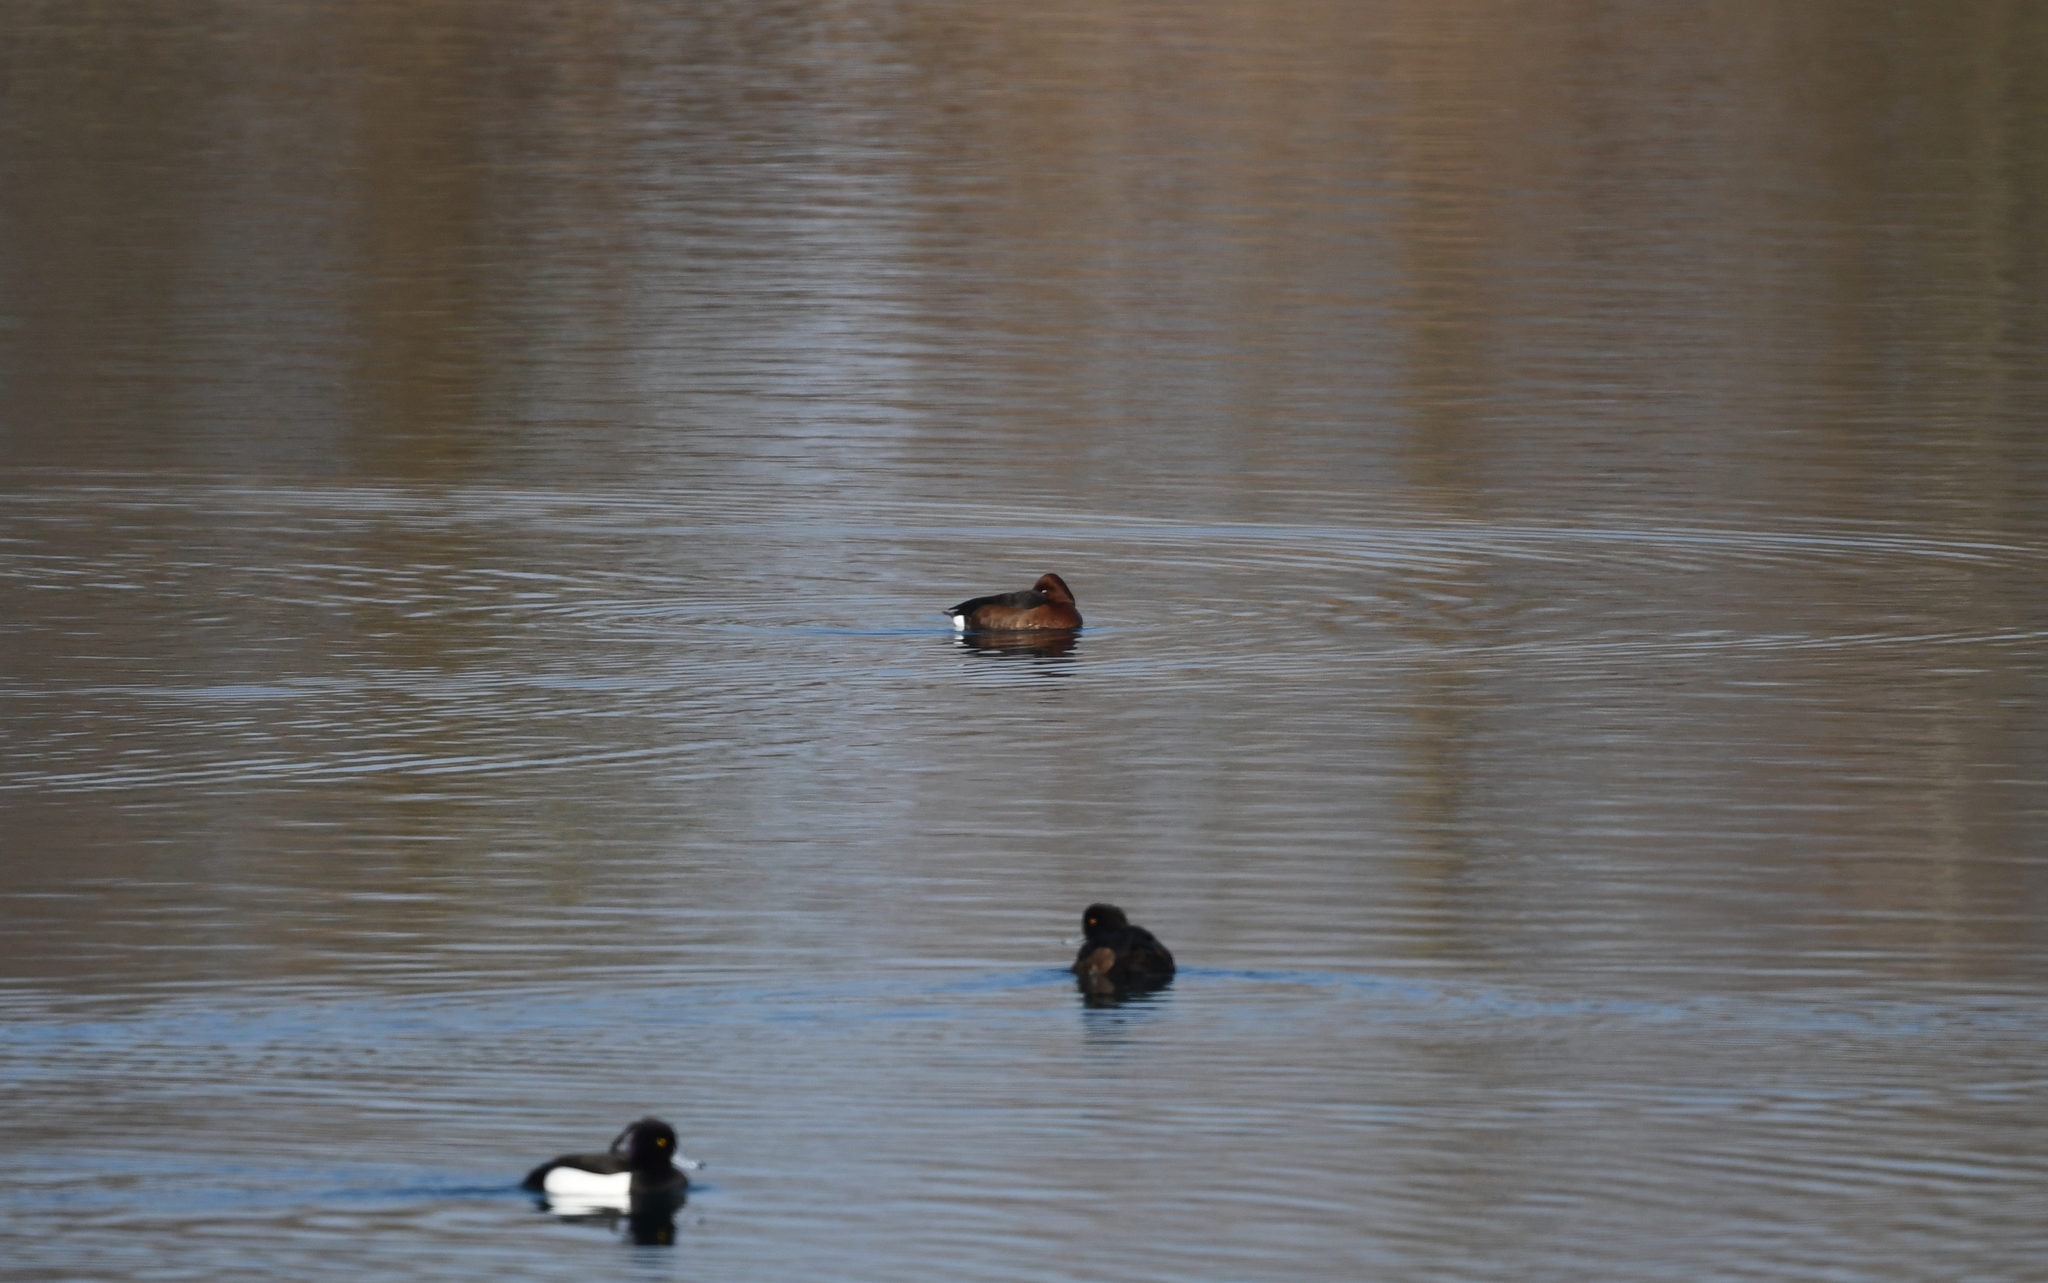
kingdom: Animalia
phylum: Chordata
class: Aves
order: Anseriformes
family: Anatidae
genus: Aythya
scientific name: Aythya nyroca
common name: Ferruginous duck
